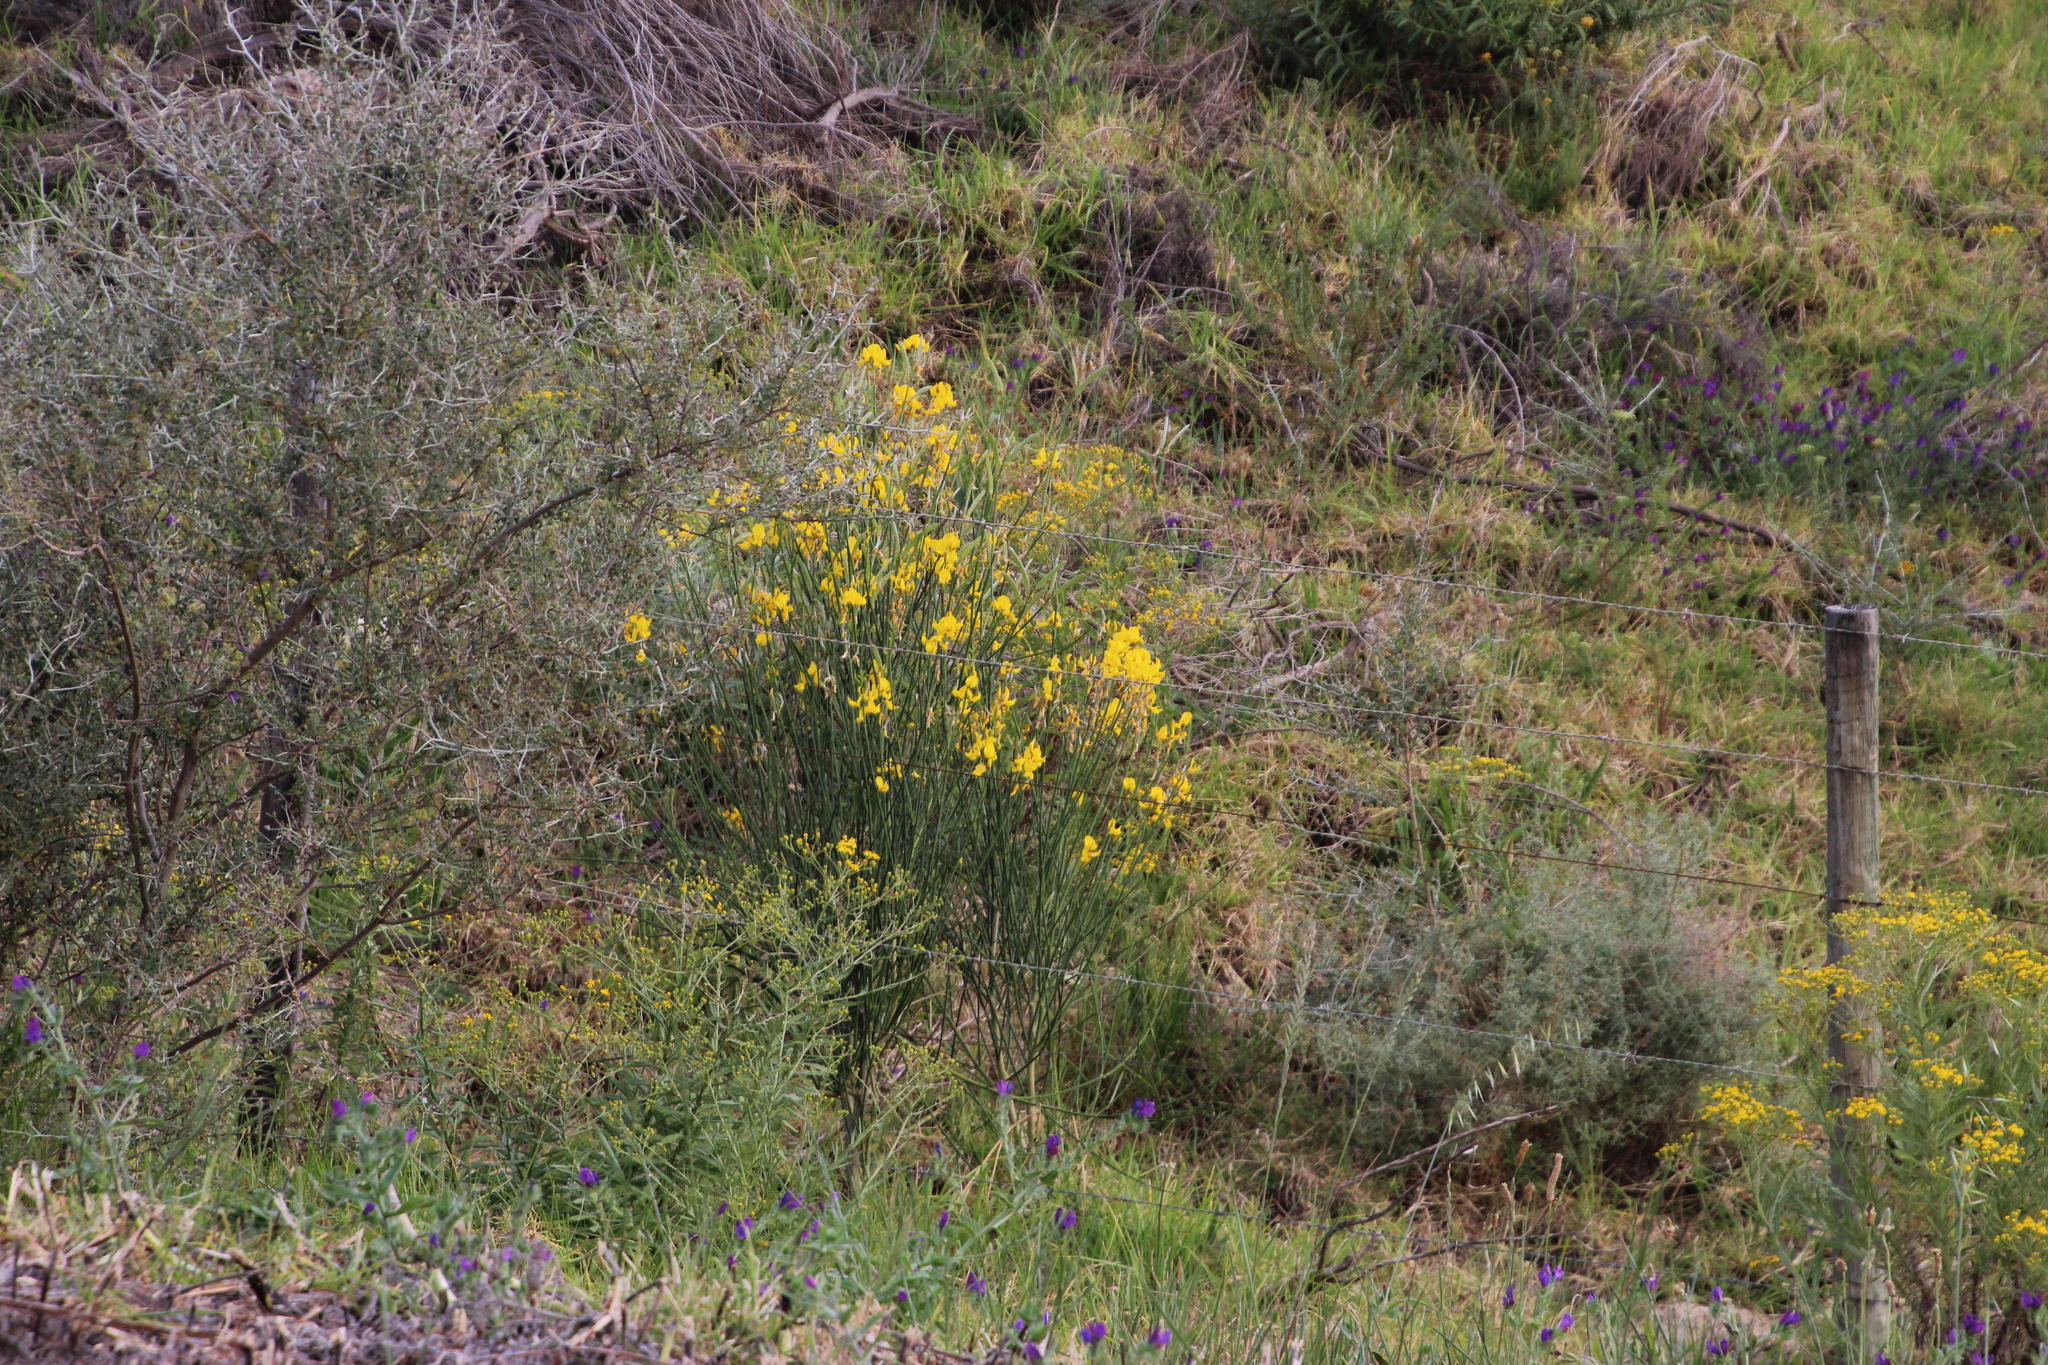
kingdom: Plantae
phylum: Tracheophyta
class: Magnoliopsida
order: Fabales
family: Fabaceae
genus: Spartium
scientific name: Spartium junceum
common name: Spanish broom
